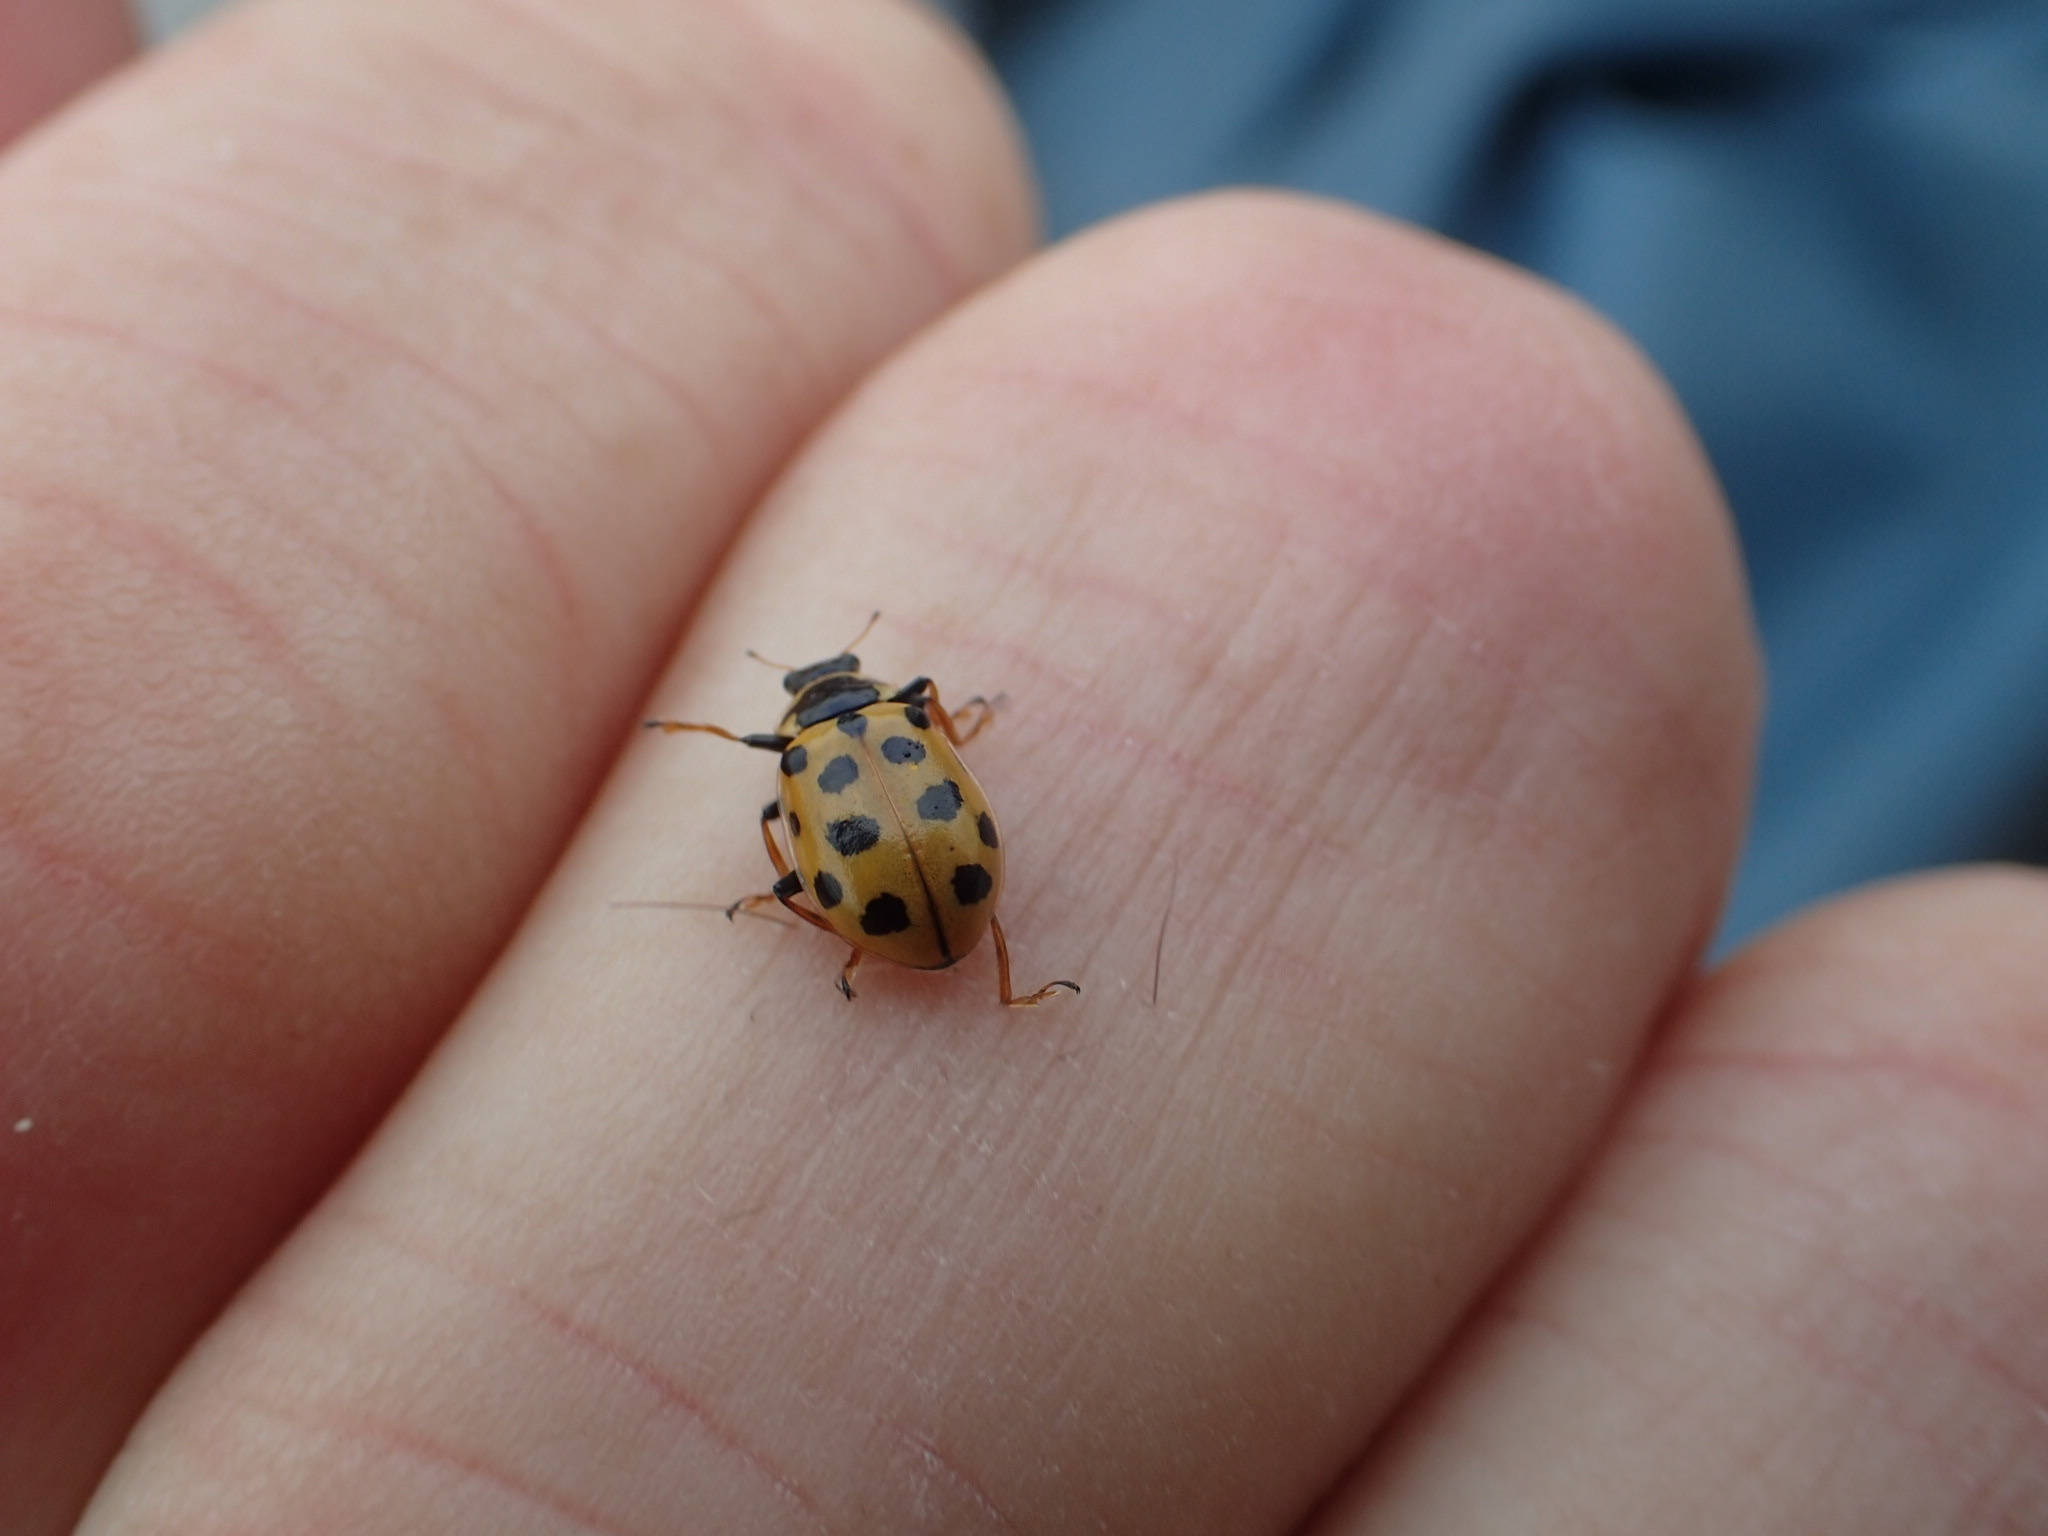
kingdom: Animalia
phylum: Arthropoda
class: Insecta
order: Coleoptera
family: Coccinellidae
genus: Hippodamia
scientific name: Hippodamia tredecimpunctata
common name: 13-spot ladybird
